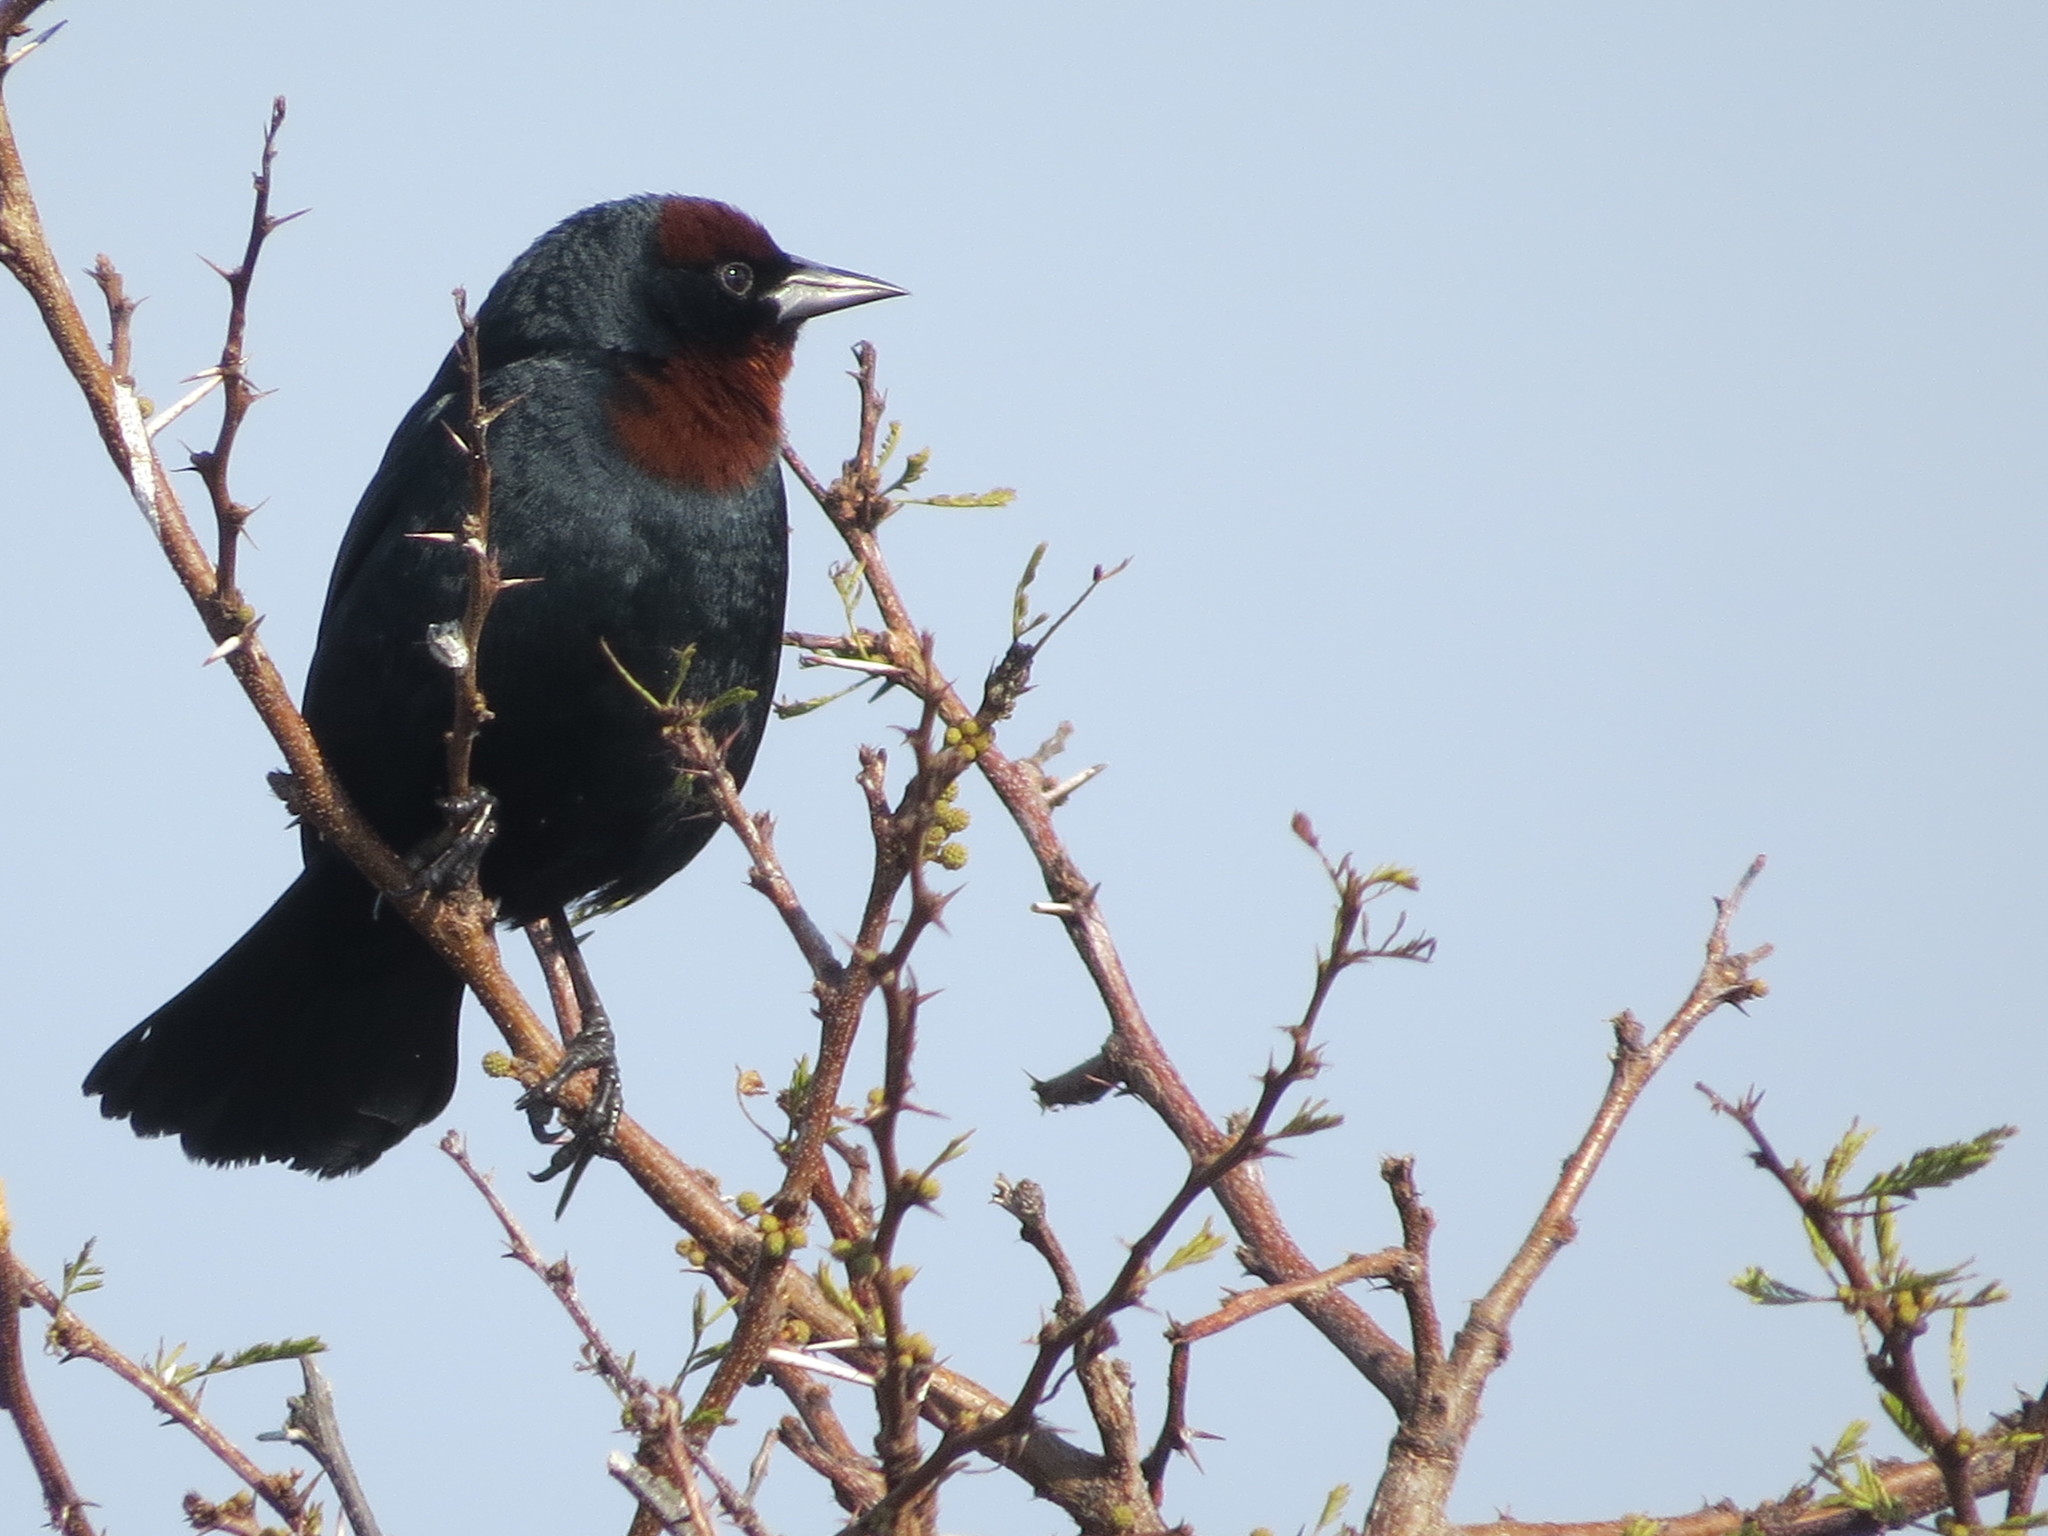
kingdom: Animalia
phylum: Chordata
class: Aves
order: Passeriformes
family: Icteridae
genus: Chrysomus
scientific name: Chrysomus ruficapillus
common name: Chestnut-capped blackbird
